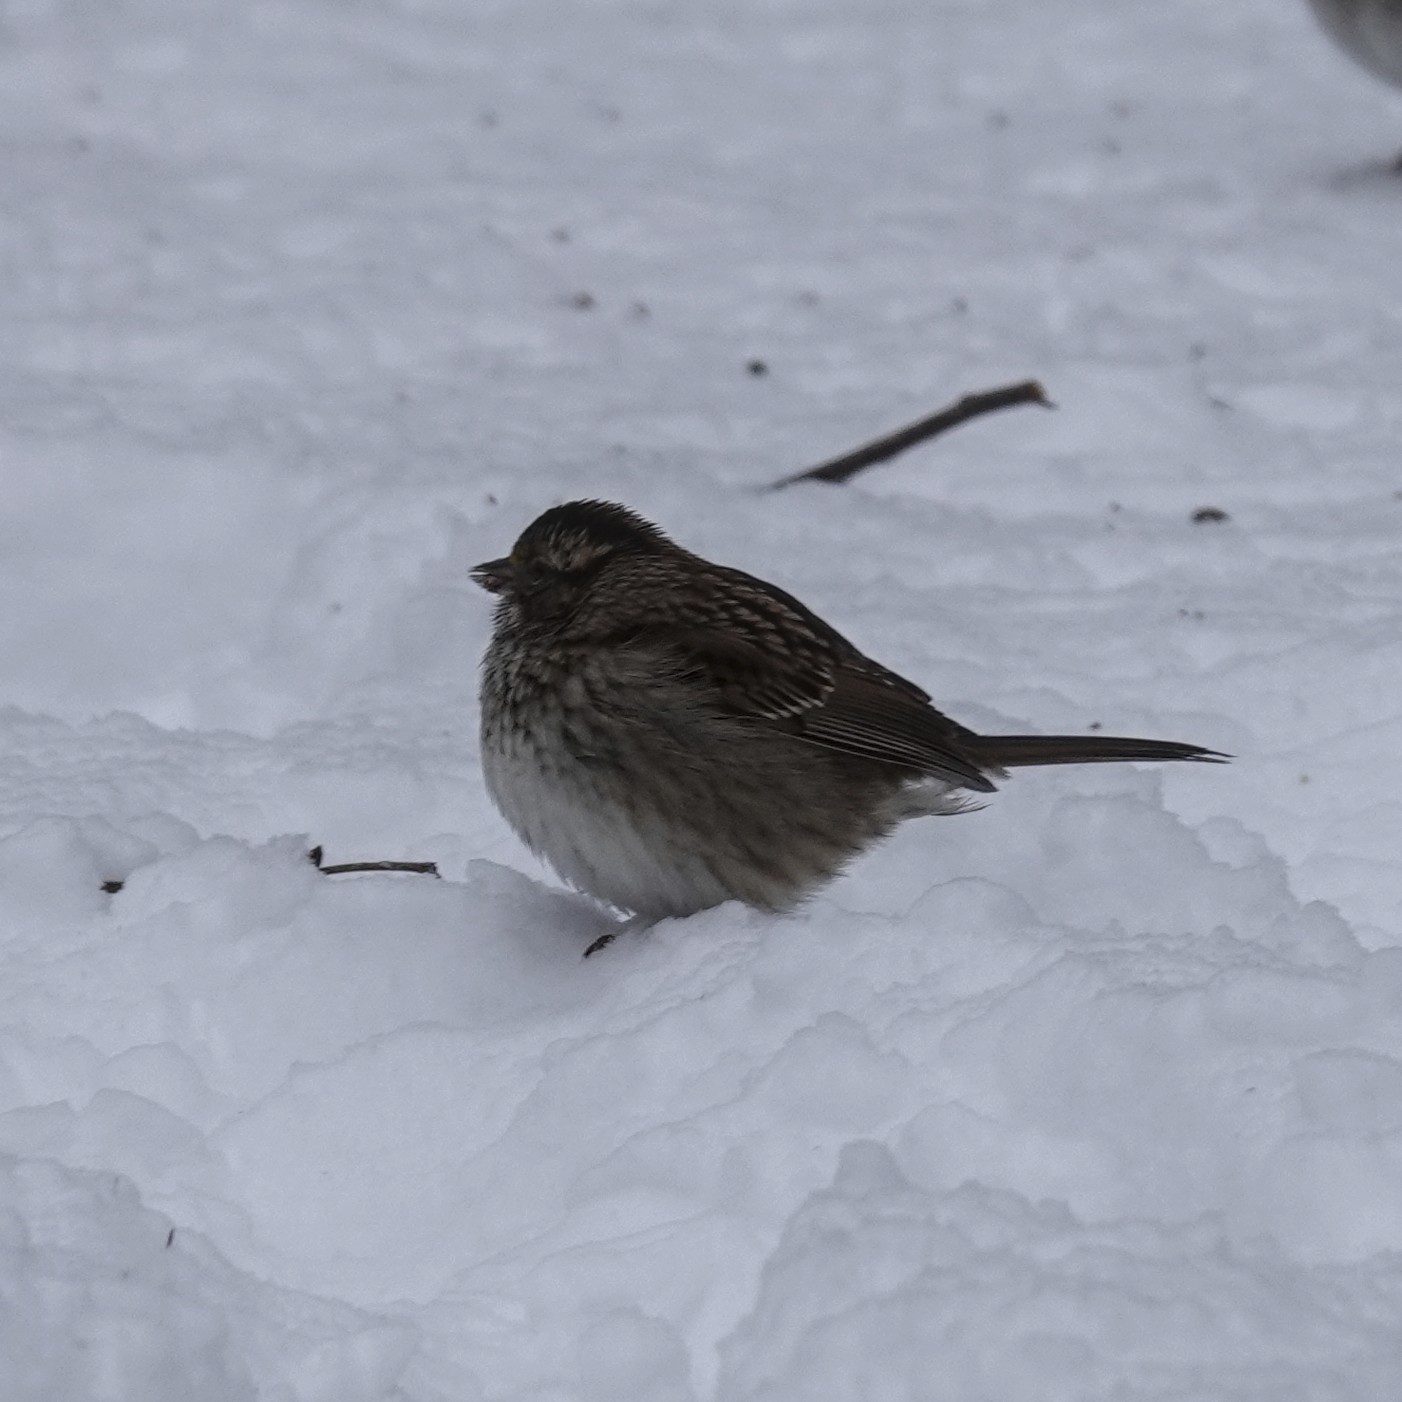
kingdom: Animalia
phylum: Chordata
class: Aves
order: Passeriformes
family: Passerellidae
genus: Zonotrichia
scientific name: Zonotrichia albicollis
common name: White-throated sparrow
